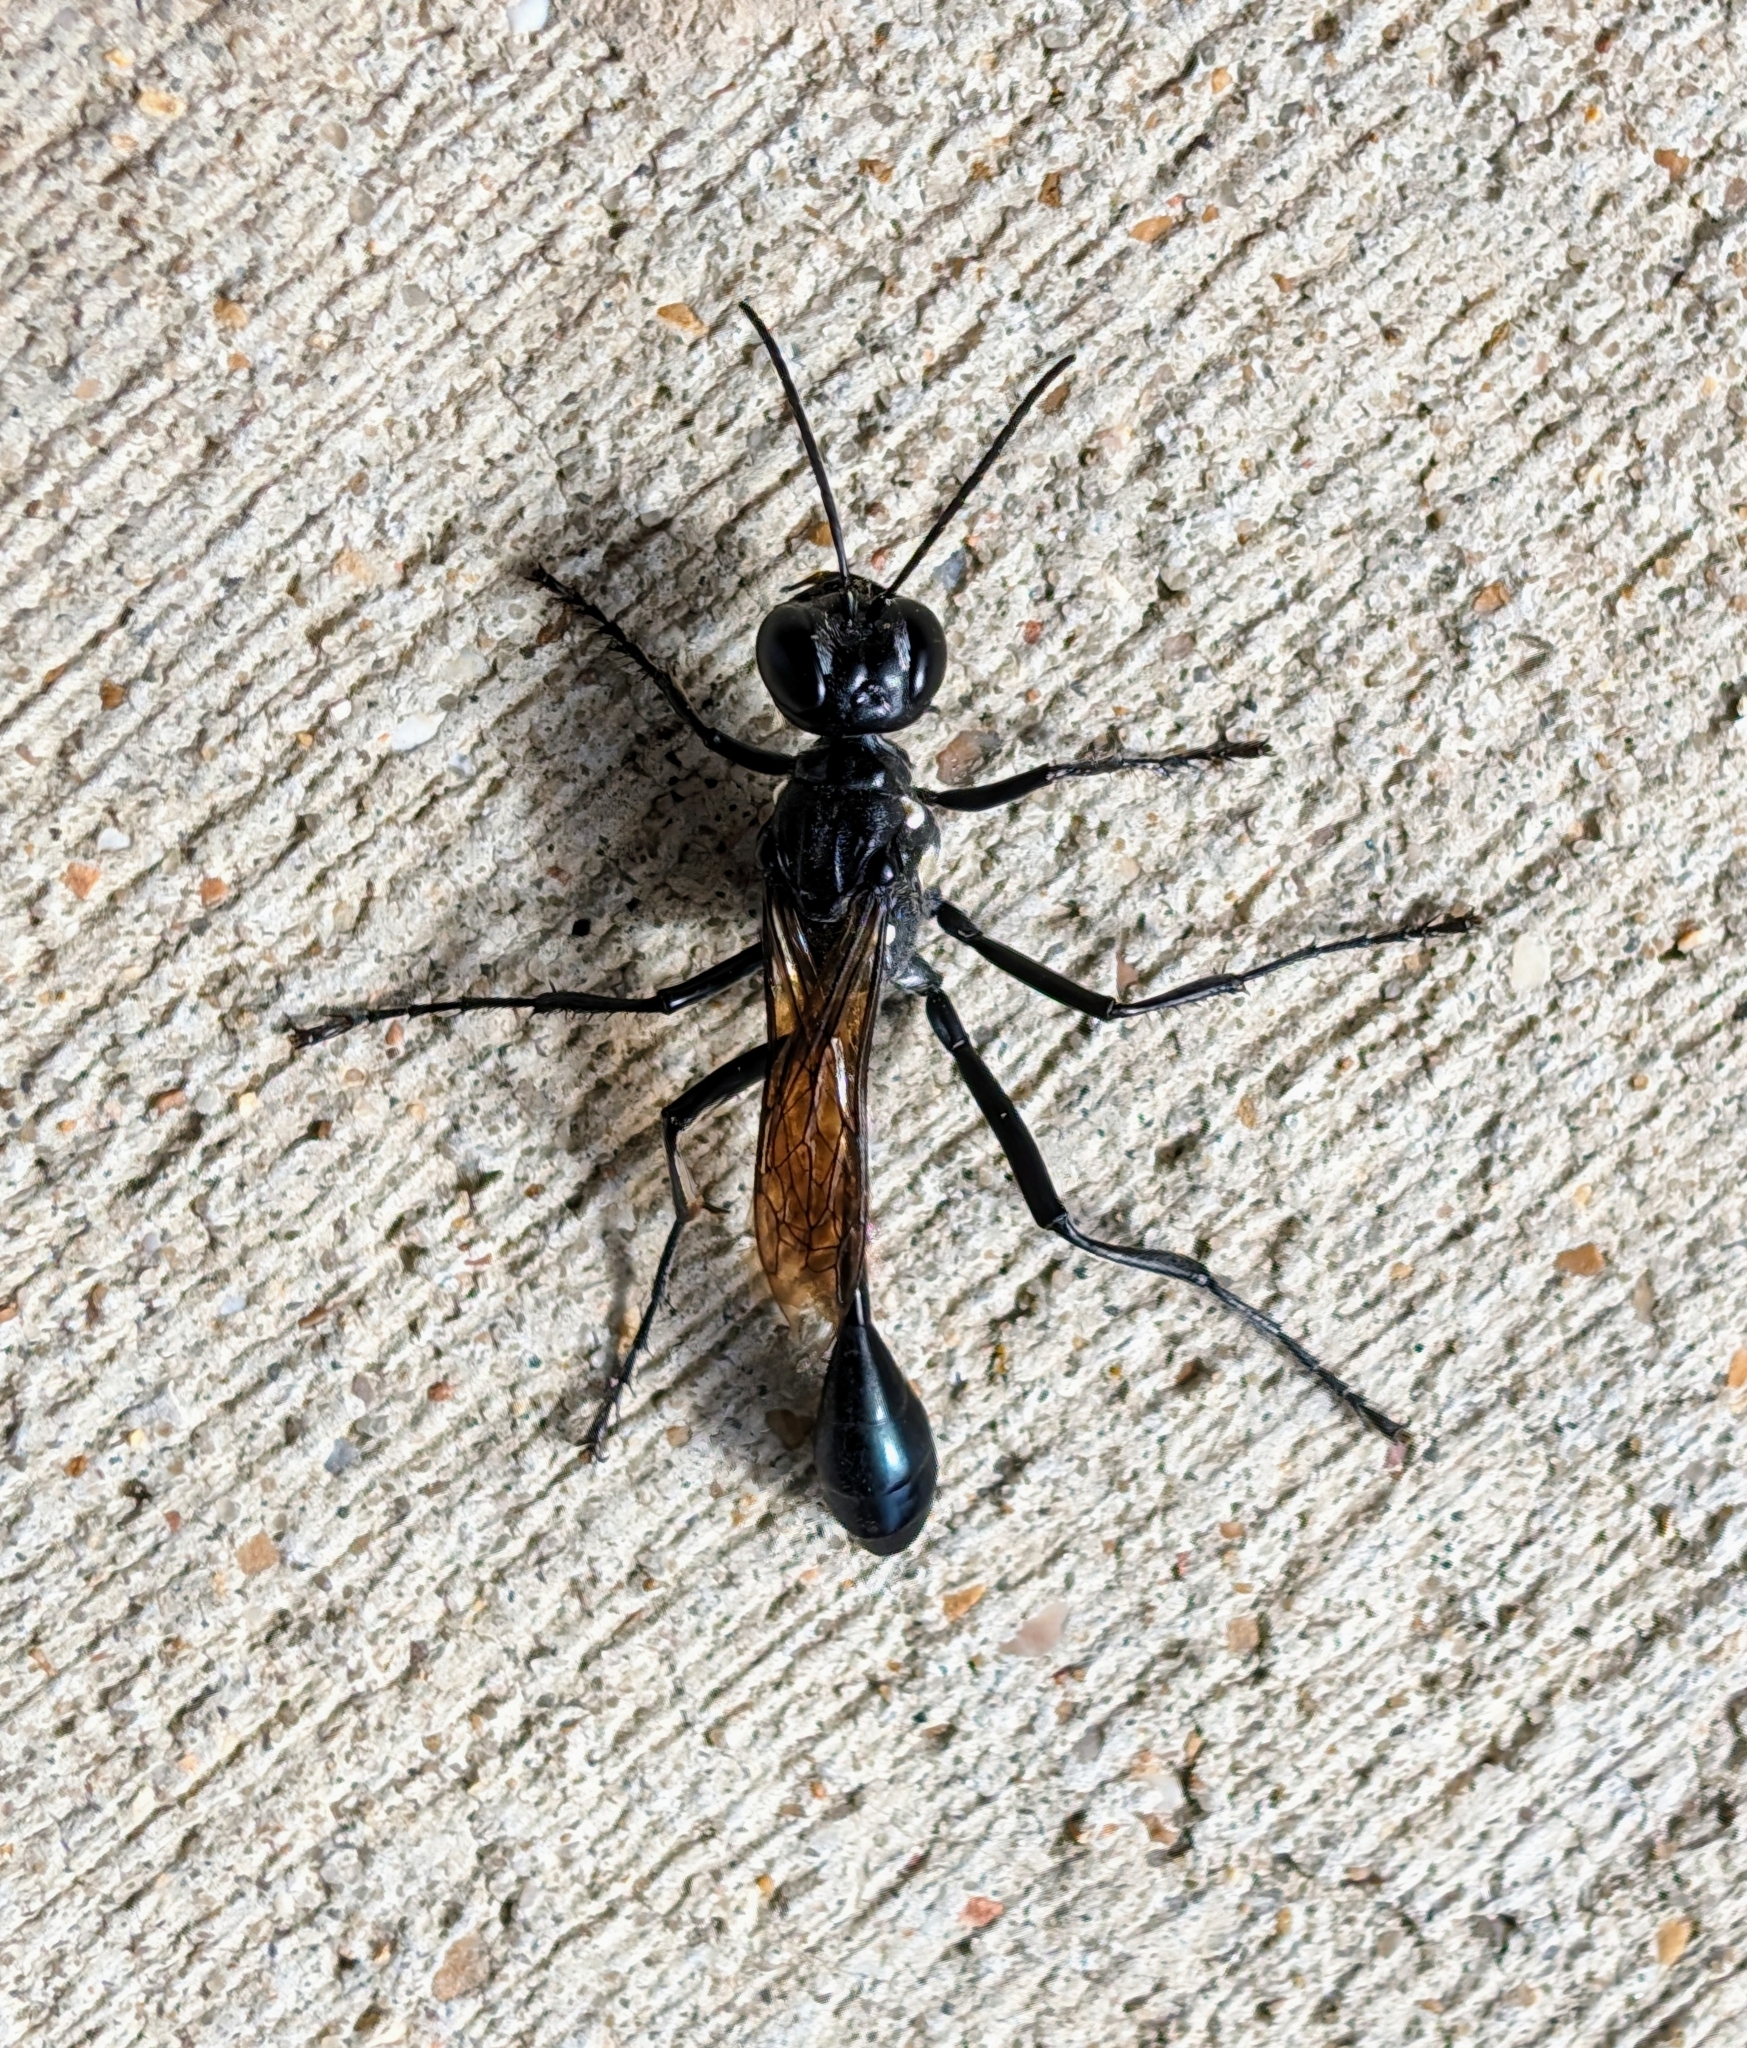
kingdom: Animalia
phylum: Arthropoda
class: Insecta
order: Hymenoptera
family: Sphecidae
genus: Eremnophila
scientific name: Eremnophila aureonotata
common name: Gold-marked thread-waisted wasp
